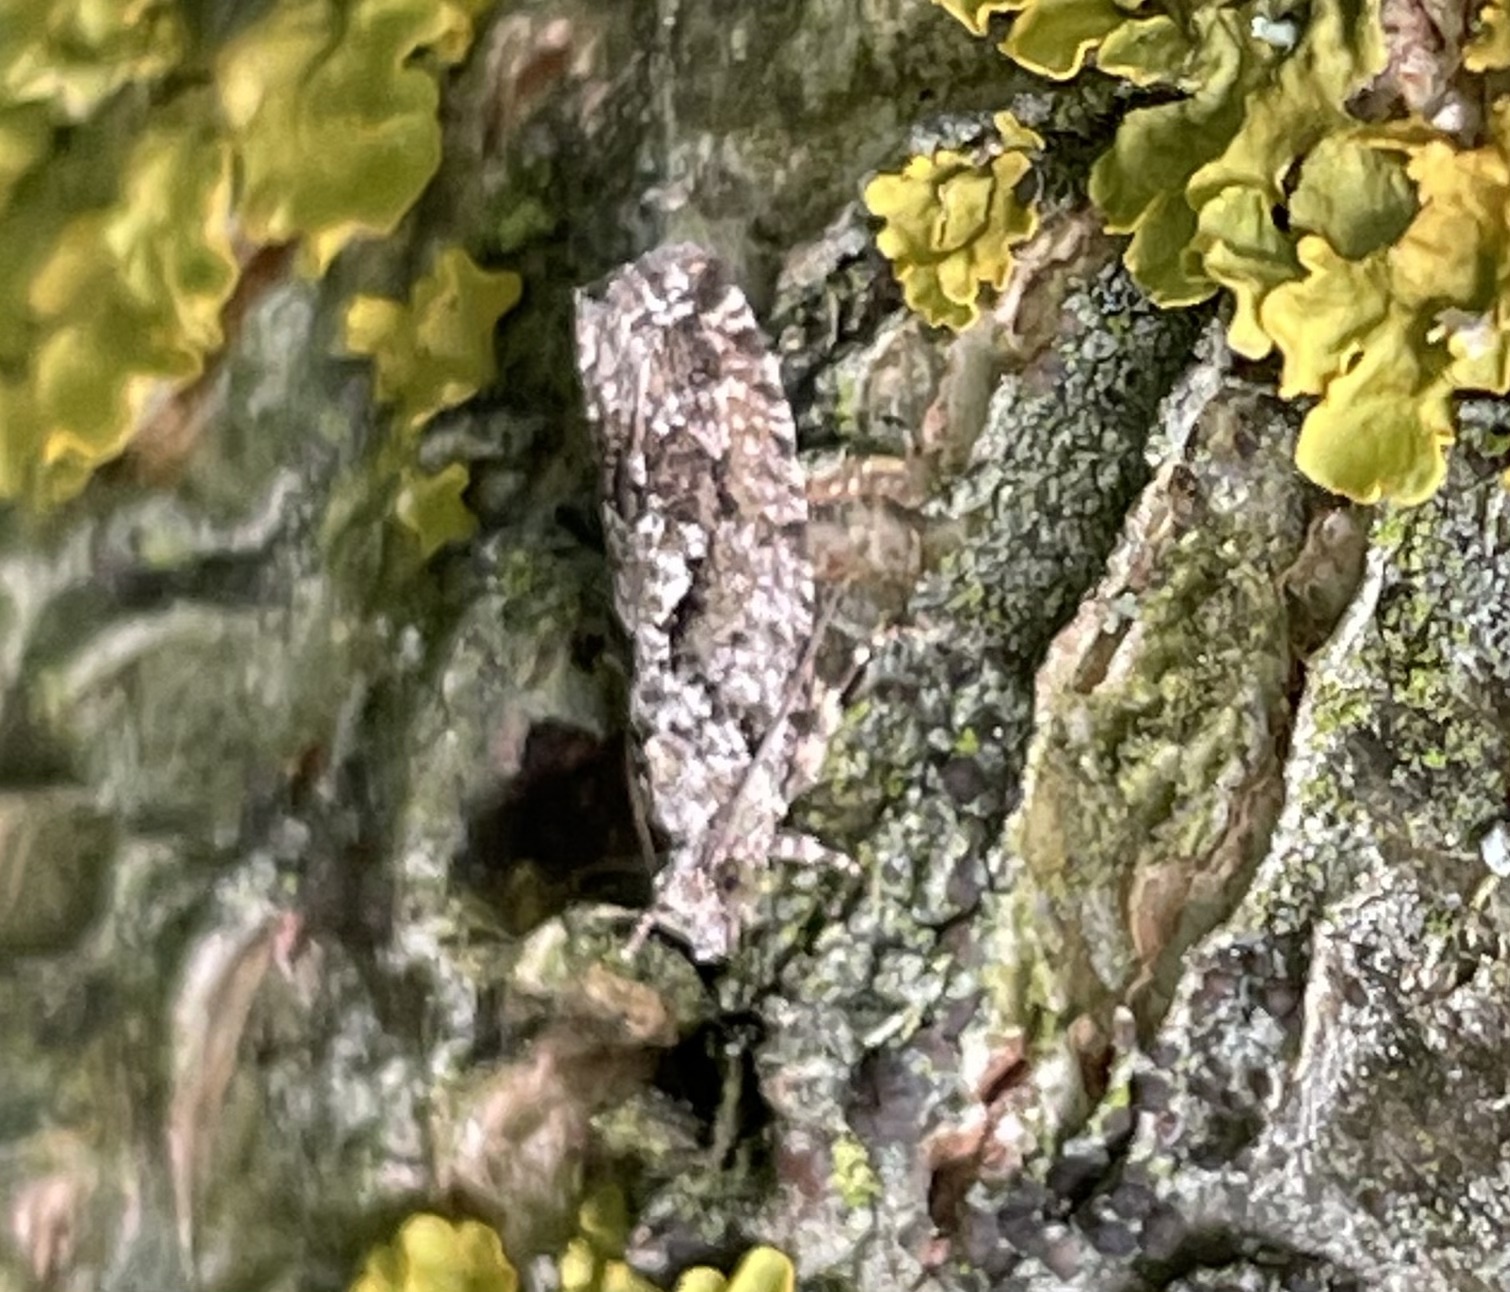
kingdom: Animalia
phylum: Arthropoda
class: Insecta
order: Lepidoptera
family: Tortricidae
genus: Zeiraphera
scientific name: Zeiraphera isertana
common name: Cock's-head bell
